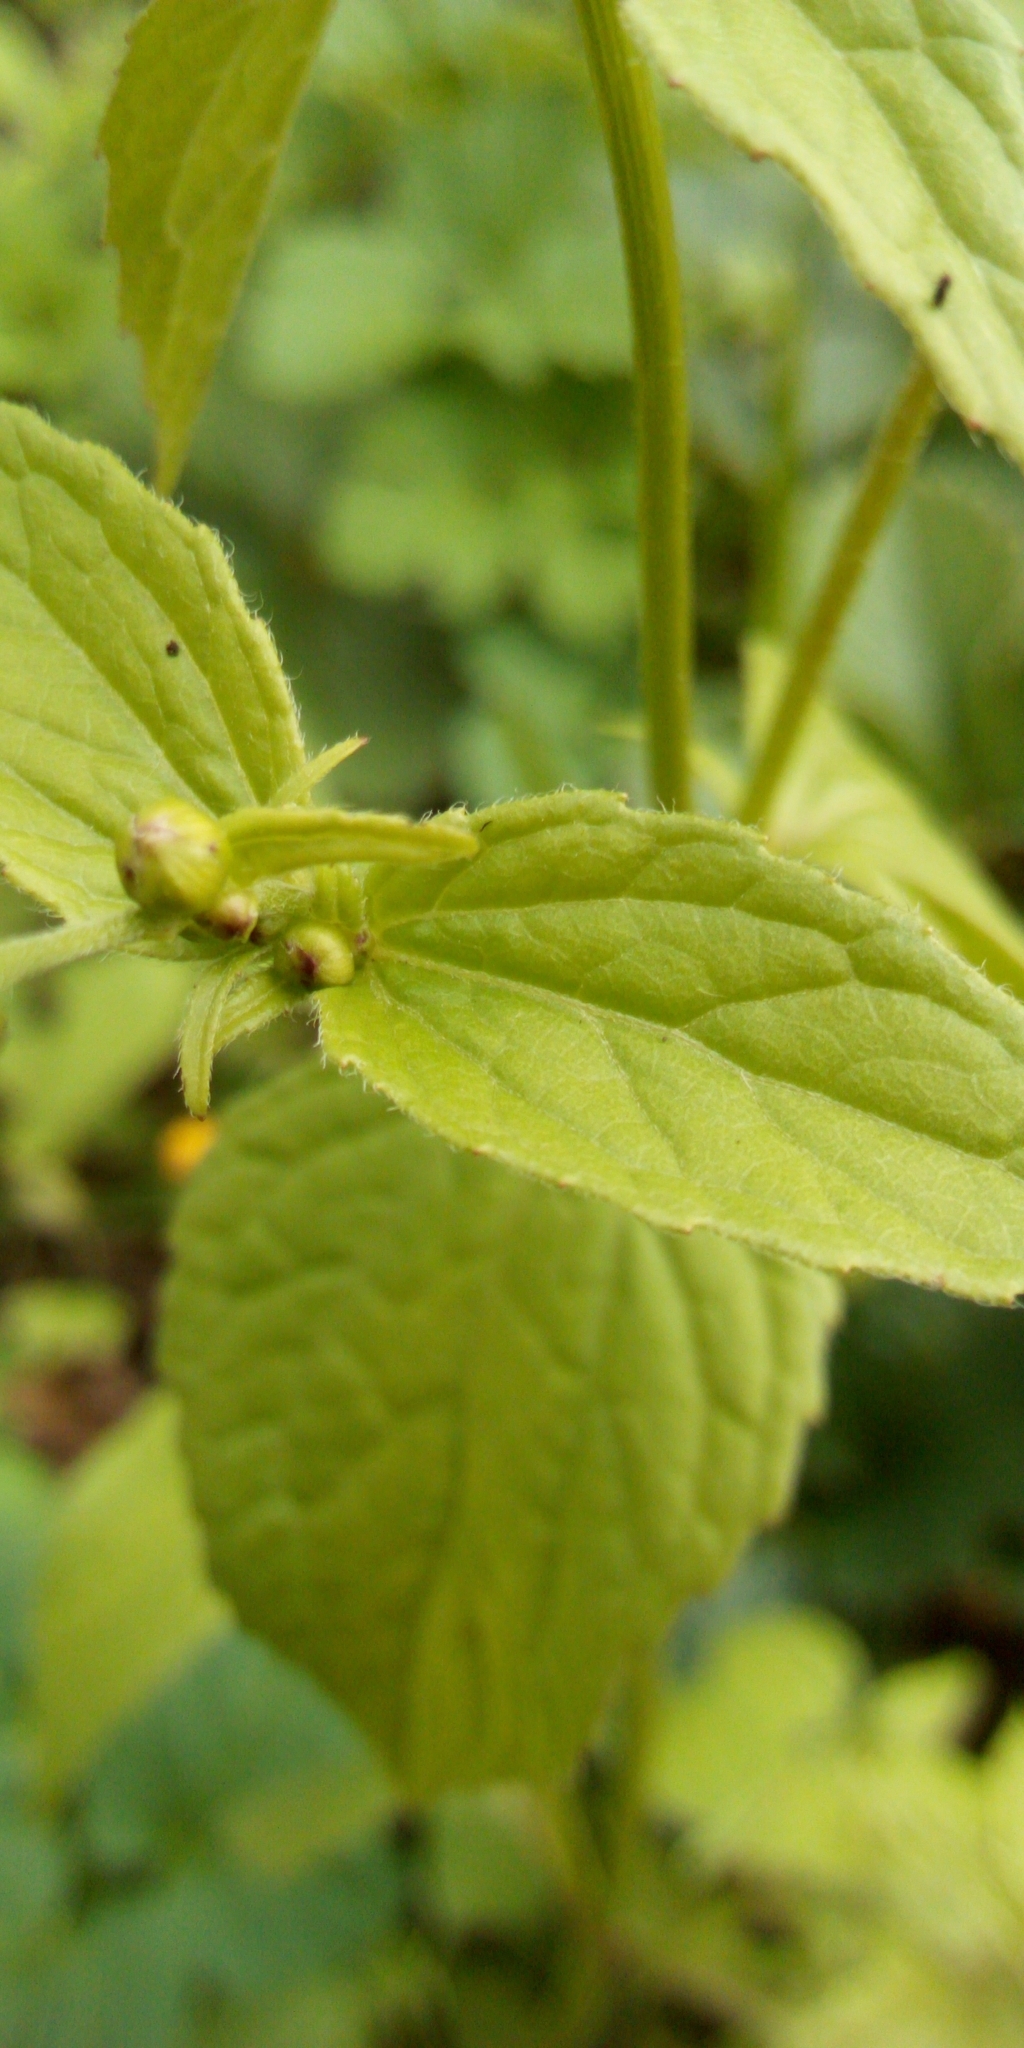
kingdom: Plantae
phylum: Tracheophyta
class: Magnoliopsida
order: Asterales
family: Asteraceae
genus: Galinsoga
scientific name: Galinsoga parviflora
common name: Gallant soldier
